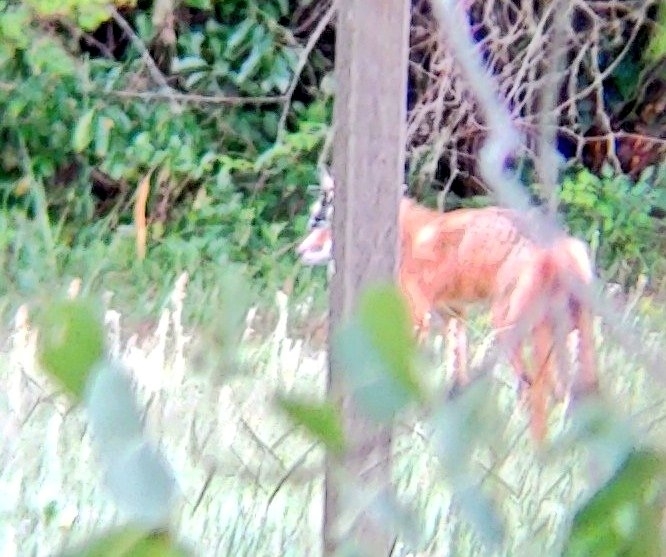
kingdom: Animalia
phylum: Chordata
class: Mammalia
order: Carnivora
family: Canidae
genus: Vulpes
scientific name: Vulpes vulpes
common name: Red fox
